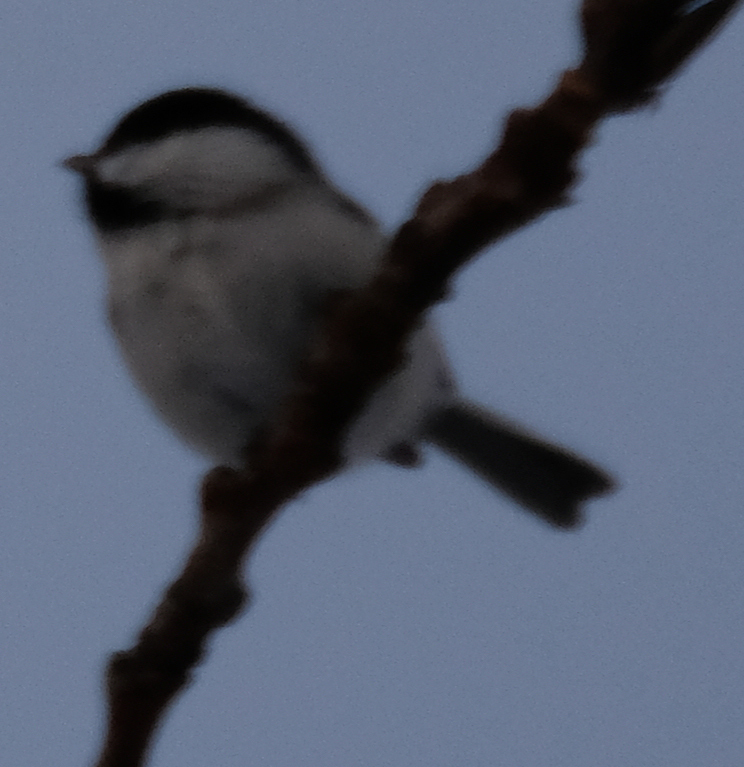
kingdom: Animalia
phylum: Chordata
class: Aves
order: Passeriformes
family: Paridae
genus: Poecile
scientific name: Poecile atricapillus
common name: Black-capped chickadee
